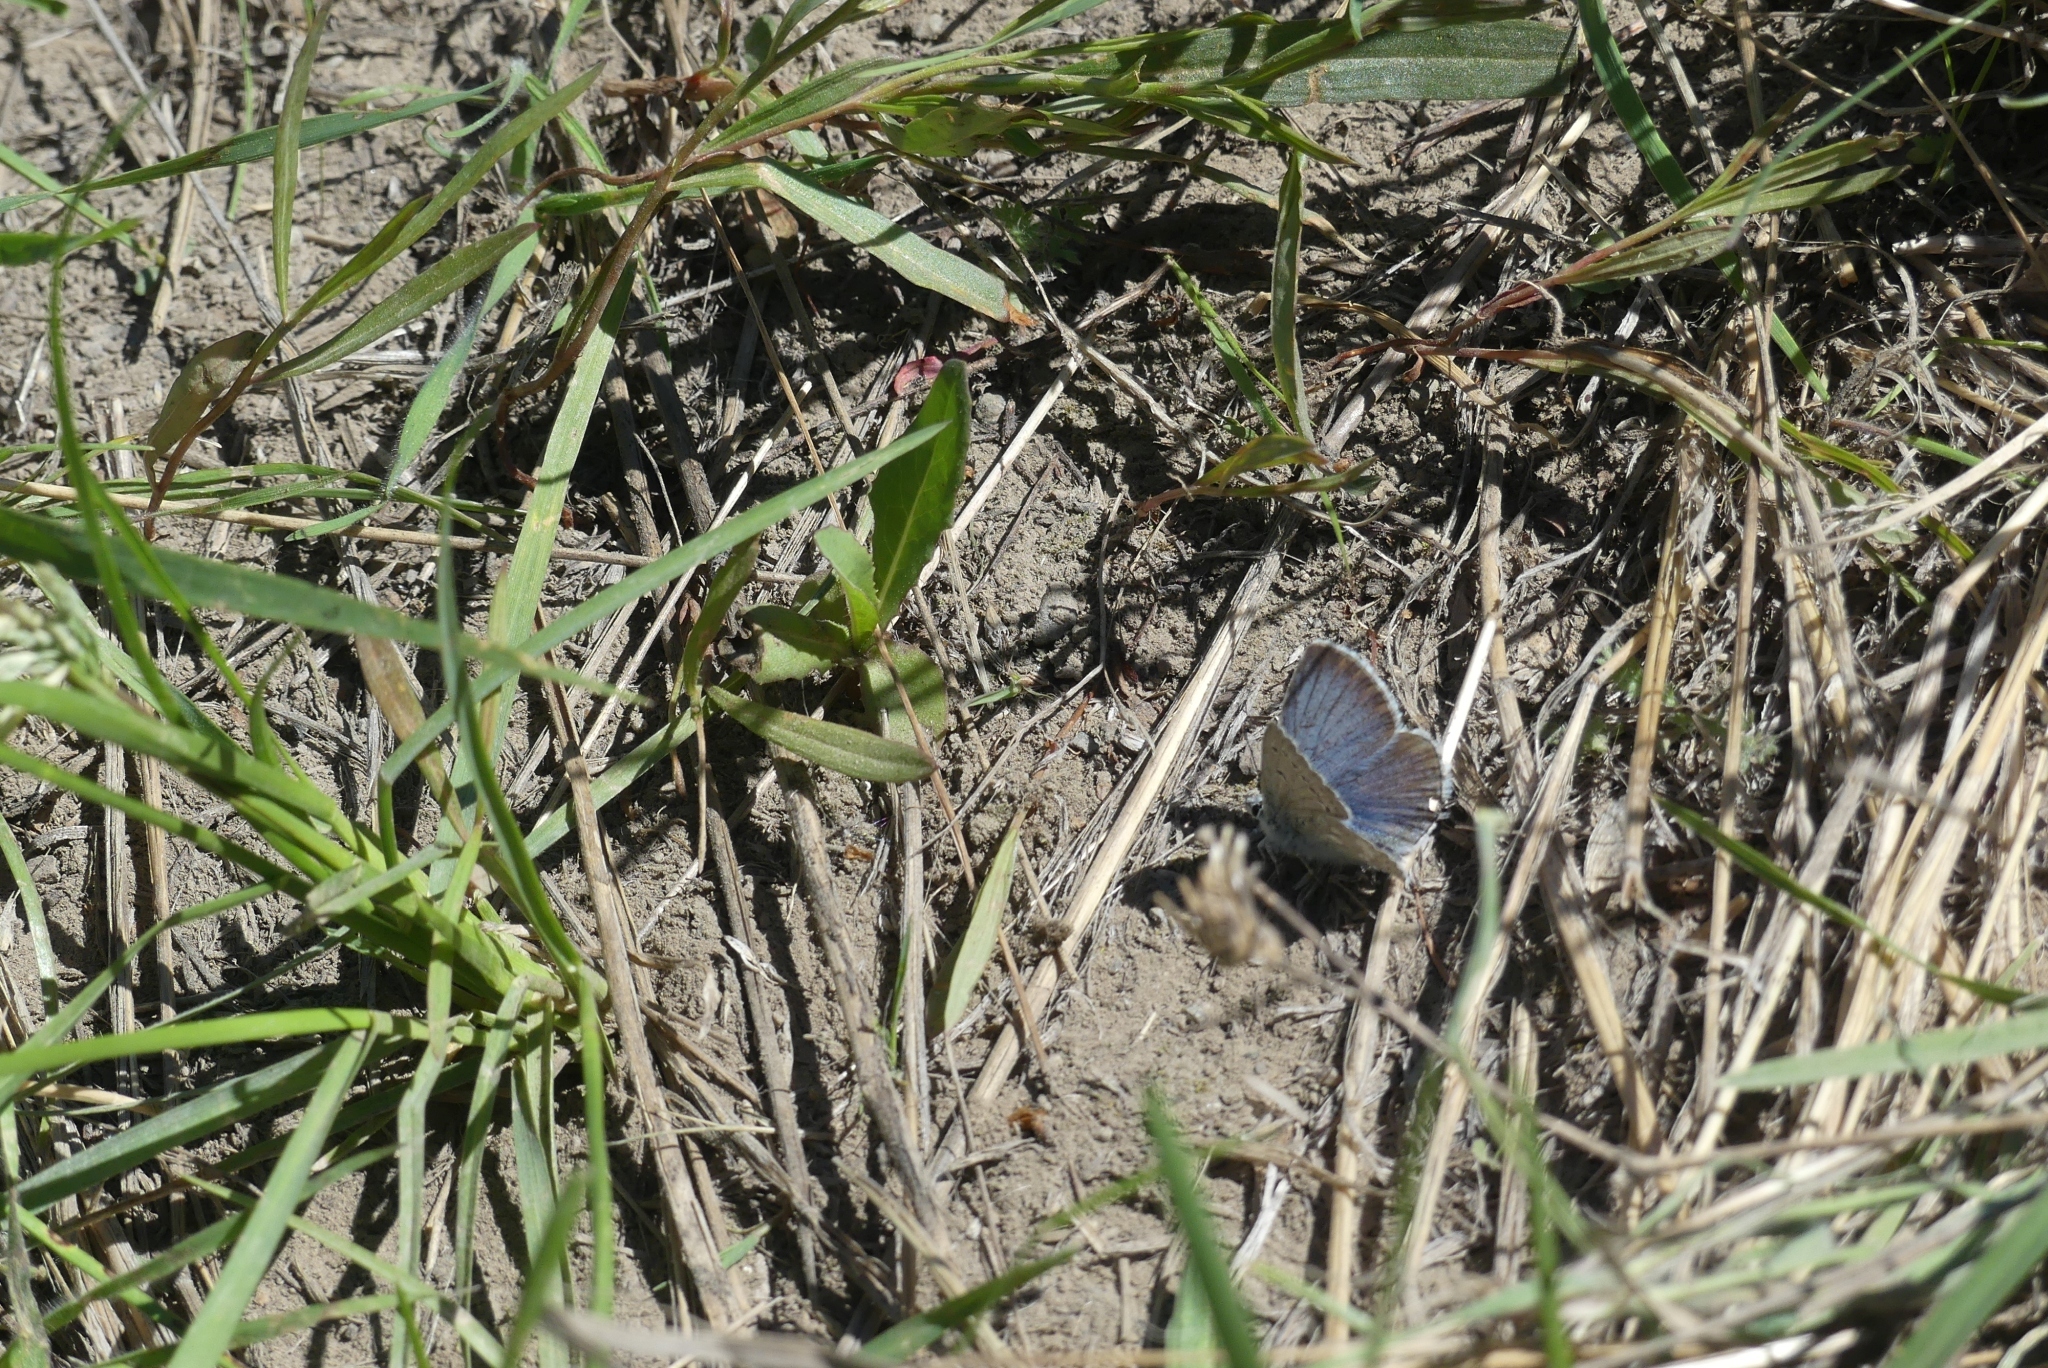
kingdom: Animalia
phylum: Arthropoda
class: Insecta
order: Lepidoptera
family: Lycaenidae
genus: Icaricia
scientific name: Icaricia icarioides
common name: Boisduval's blue
